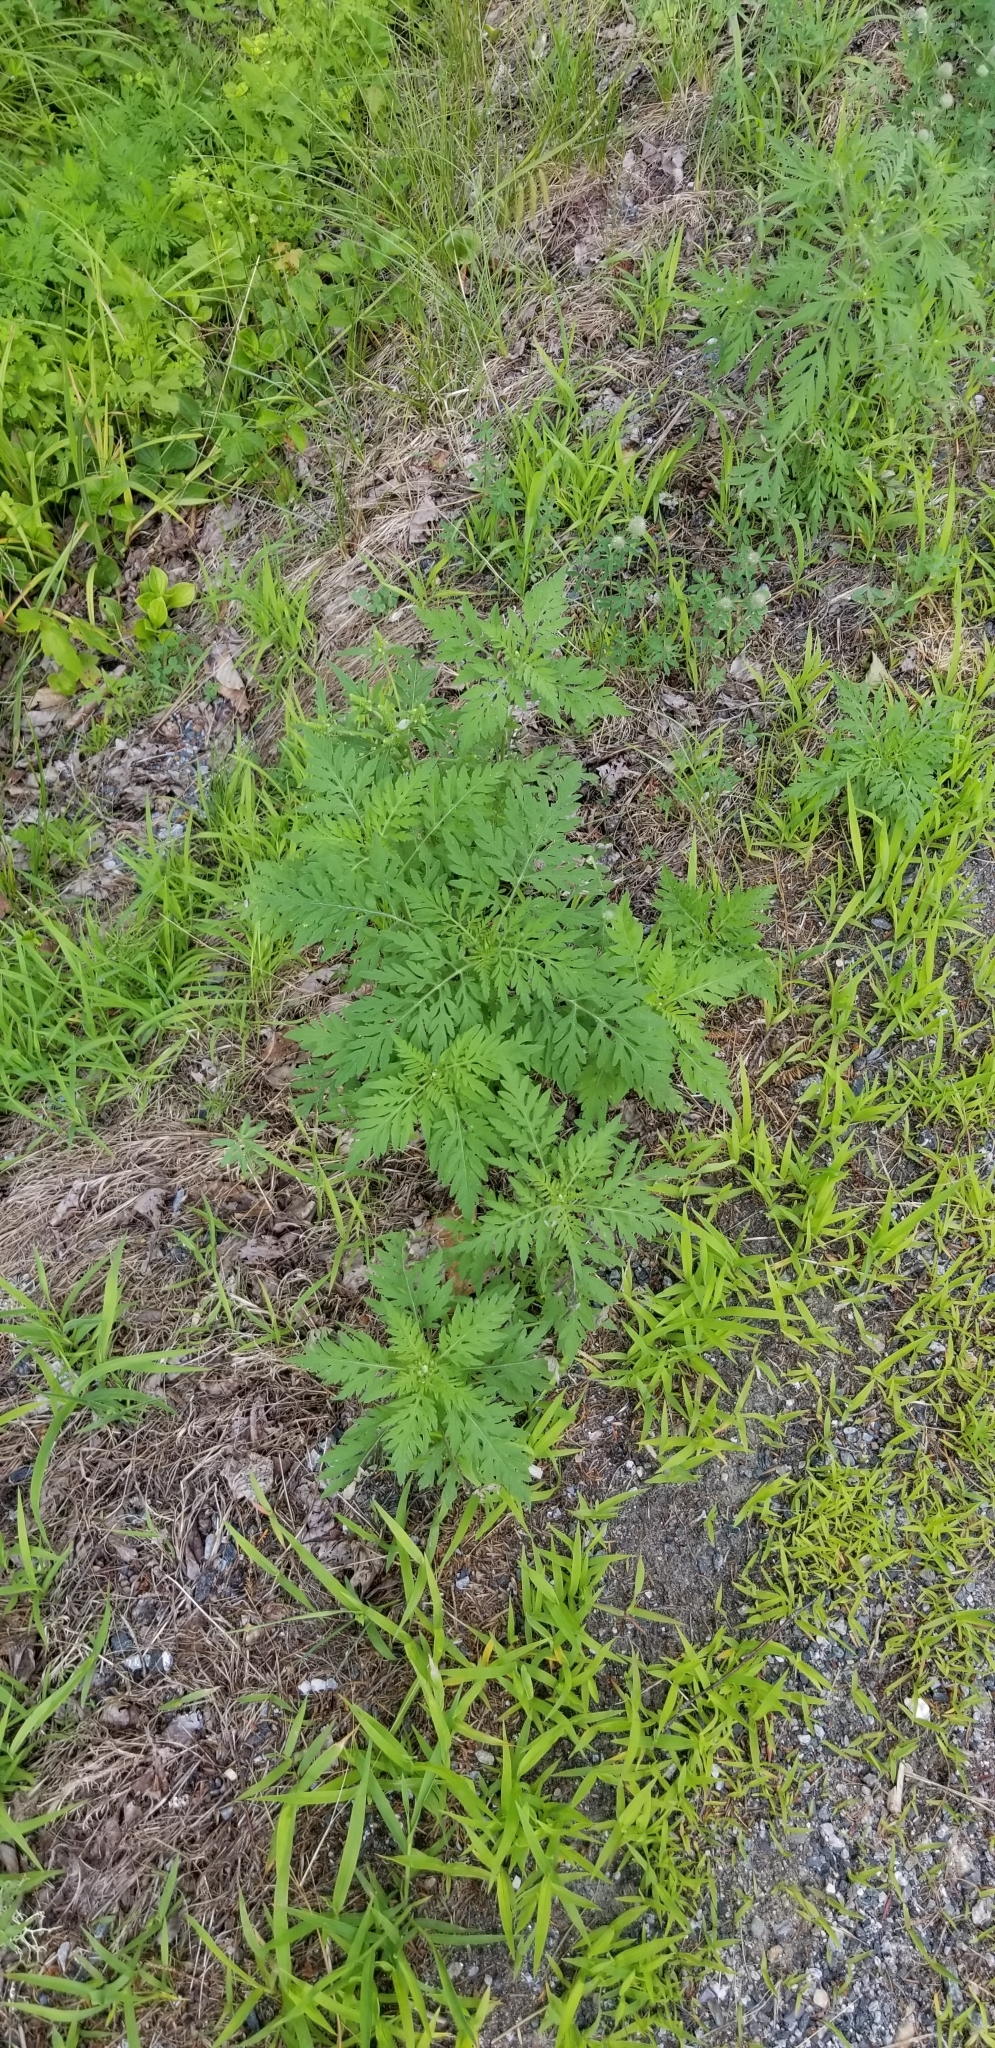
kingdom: Plantae
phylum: Tracheophyta
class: Magnoliopsida
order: Asterales
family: Asteraceae
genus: Ambrosia
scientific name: Ambrosia artemisiifolia
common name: Annual ragweed
